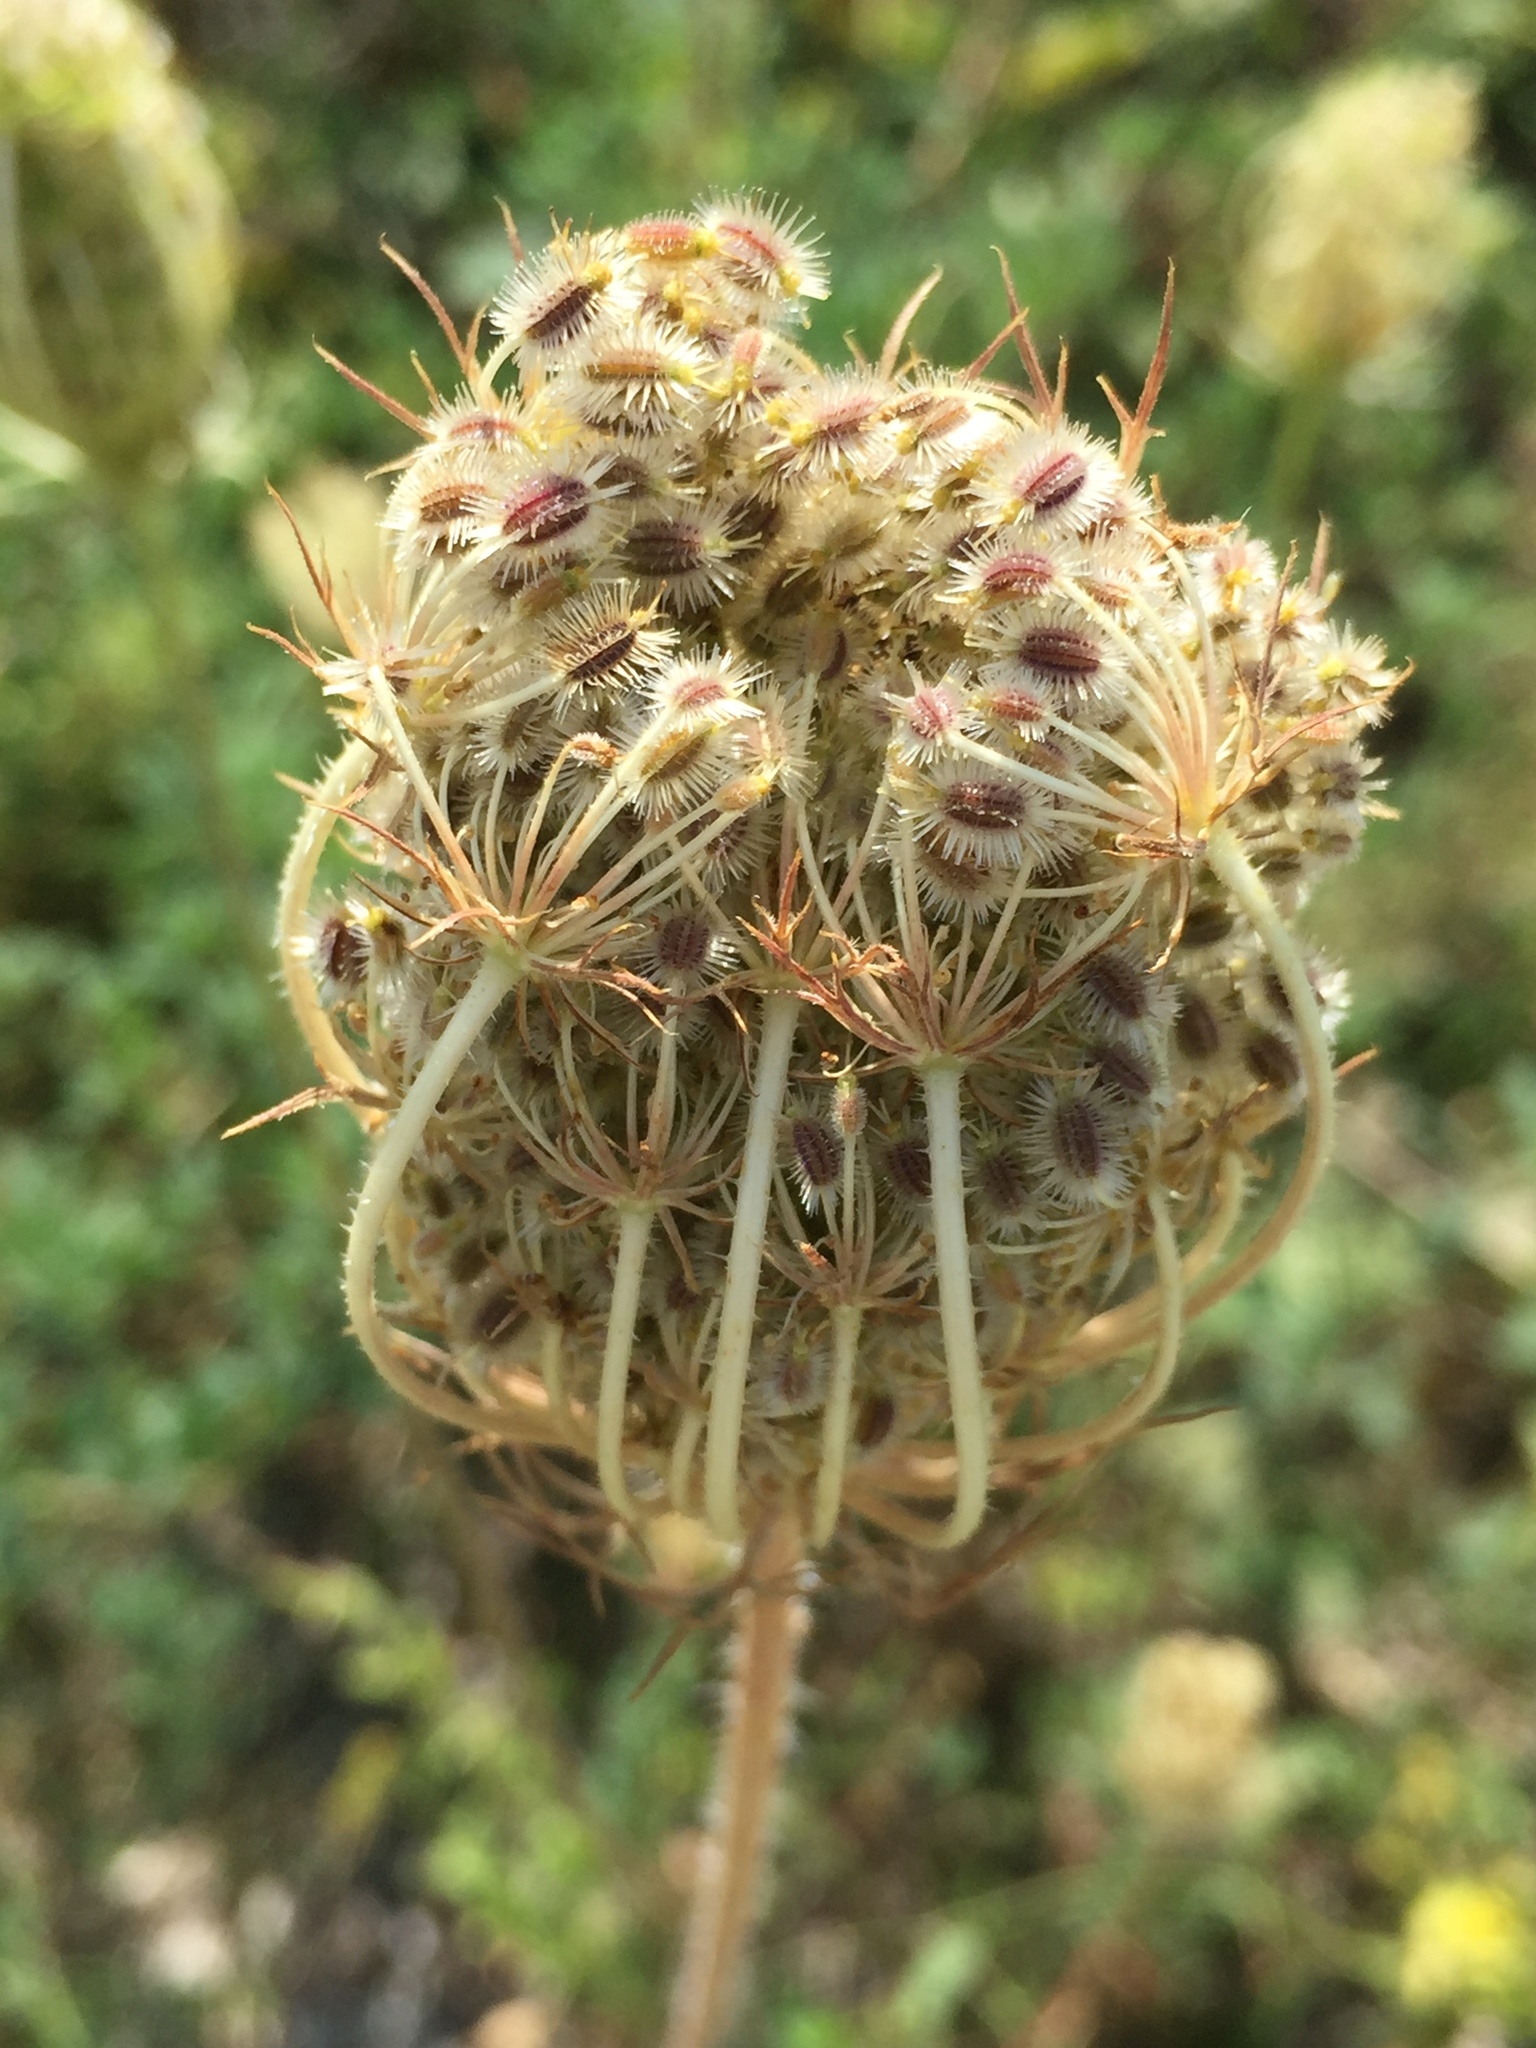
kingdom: Plantae
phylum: Tracheophyta
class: Magnoliopsida
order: Apiales
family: Apiaceae
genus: Daucus
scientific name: Daucus carota
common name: Wild carrot
